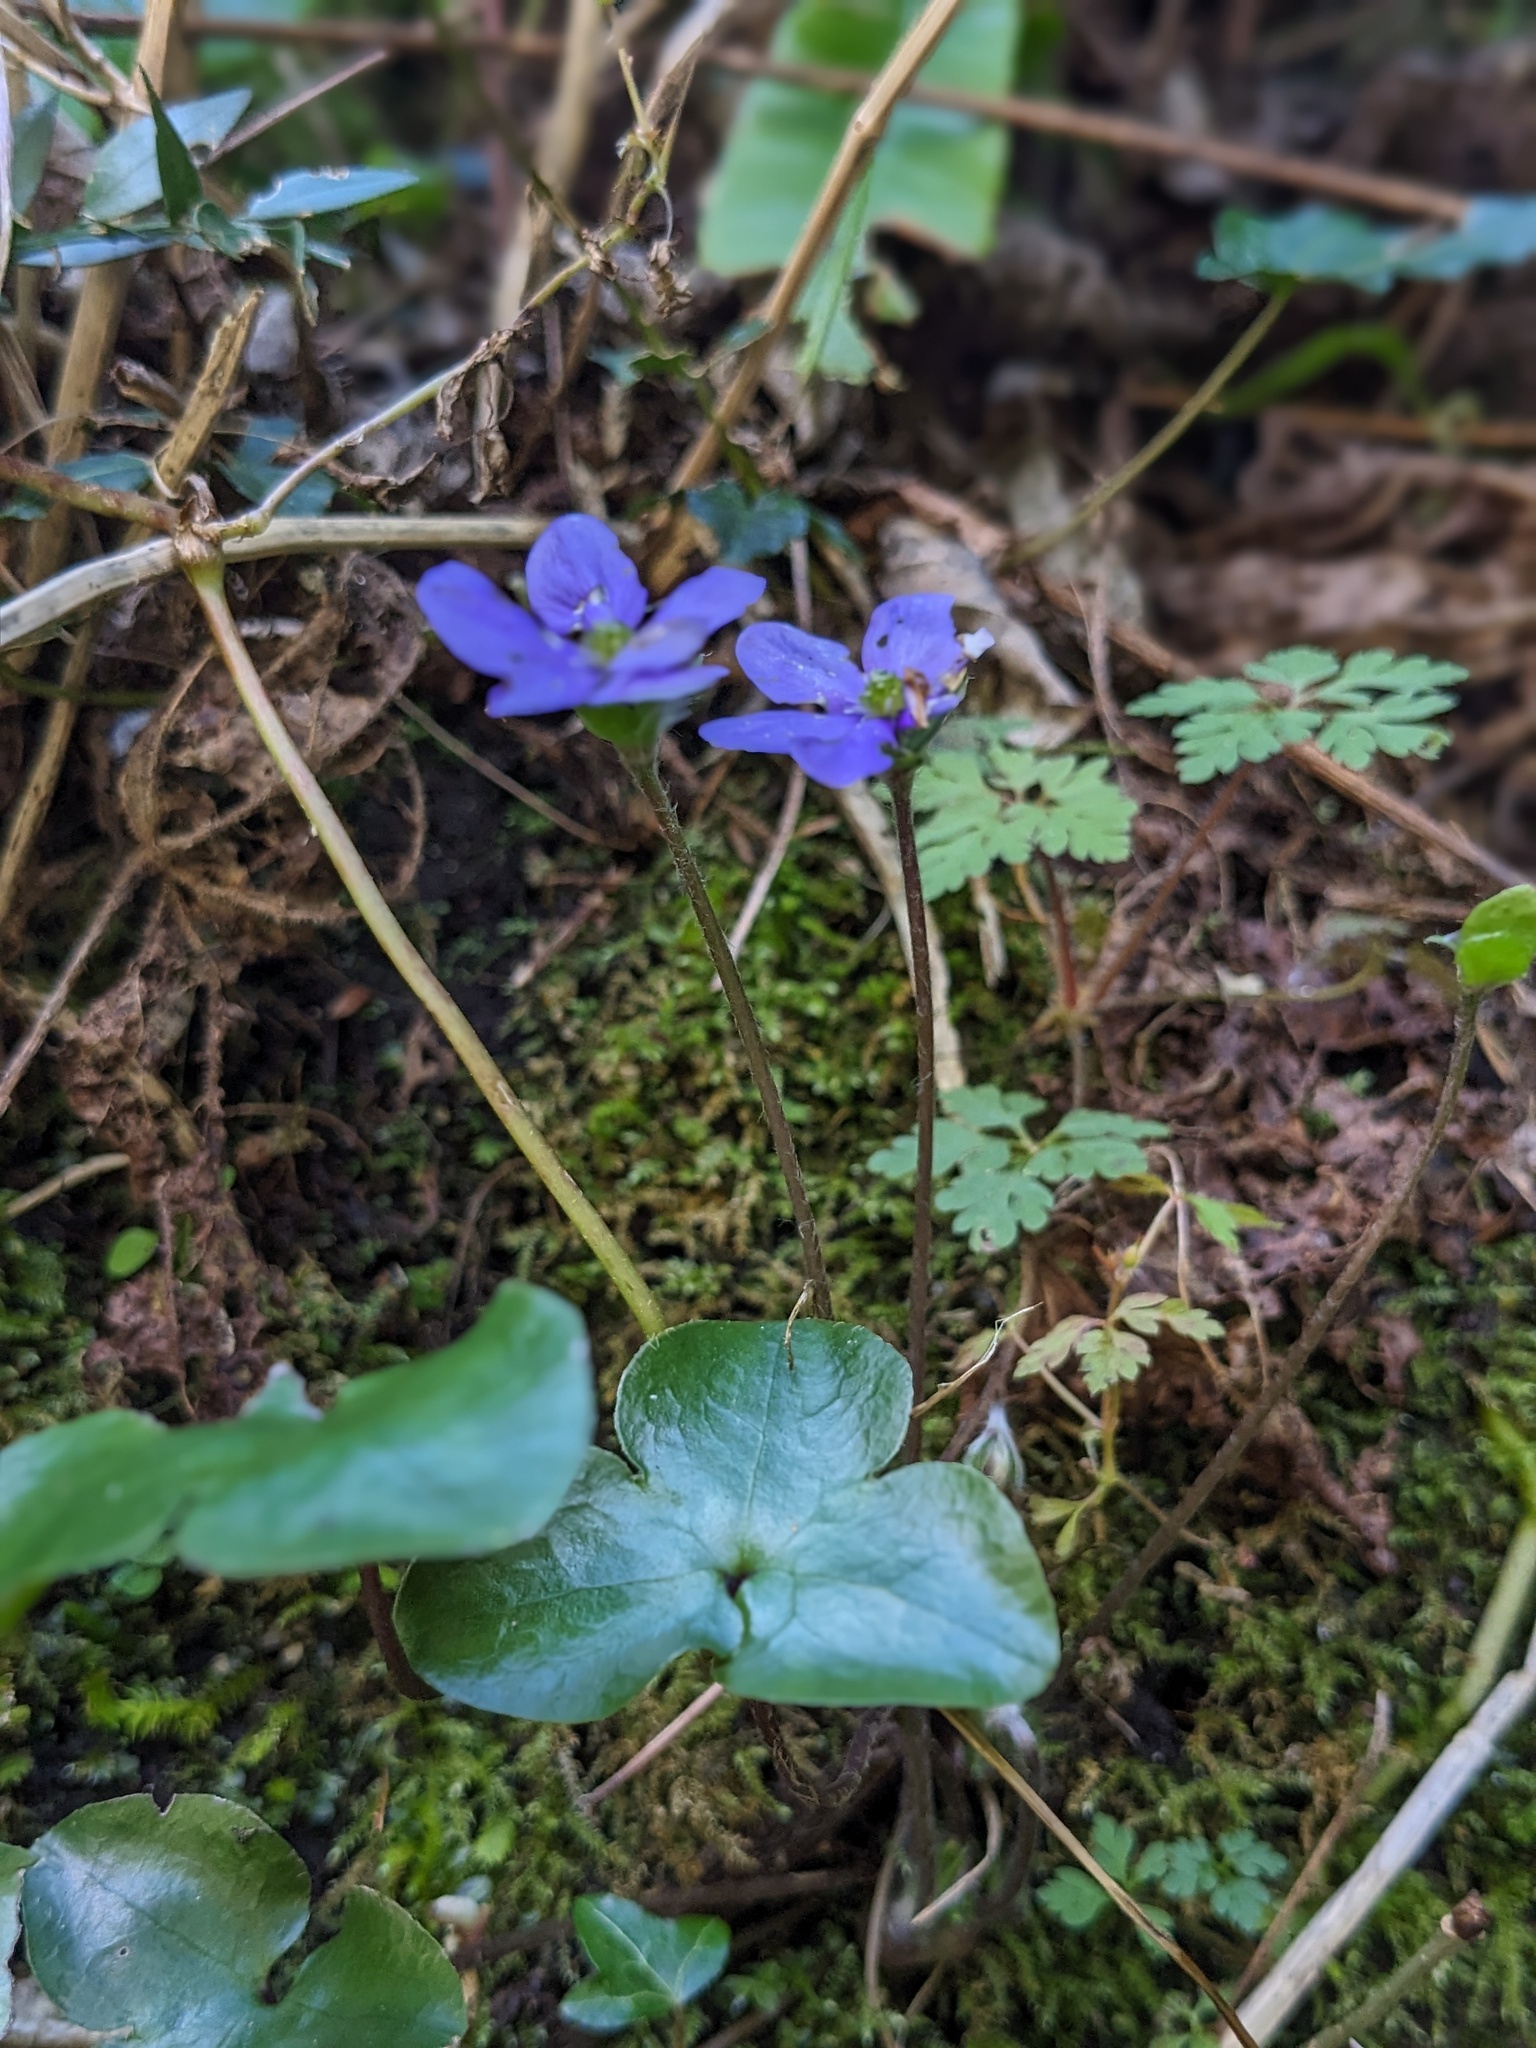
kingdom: Plantae
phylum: Tracheophyta
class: Magnoliopsida
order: Ranunculales
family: Ranunculaceae
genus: Hepatica
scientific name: Hepatica nobilis
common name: Liverleaf
